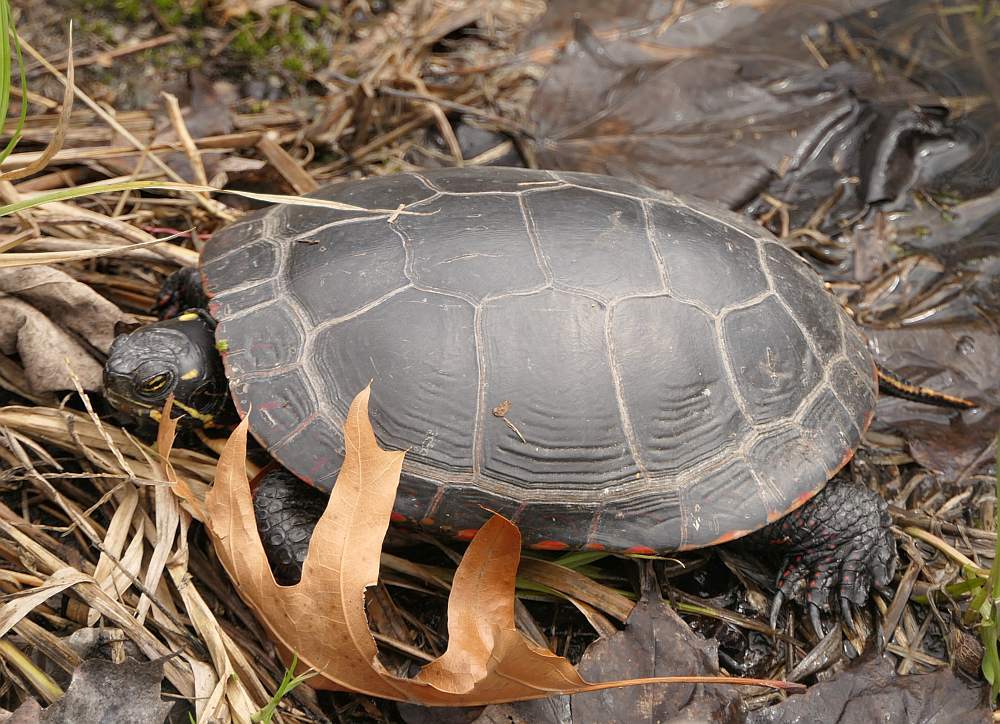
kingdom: Animalia
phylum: Chordata
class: Testudines
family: Emydidae
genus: Chrysemys
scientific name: Chrysemys picta
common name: Painted turtle
